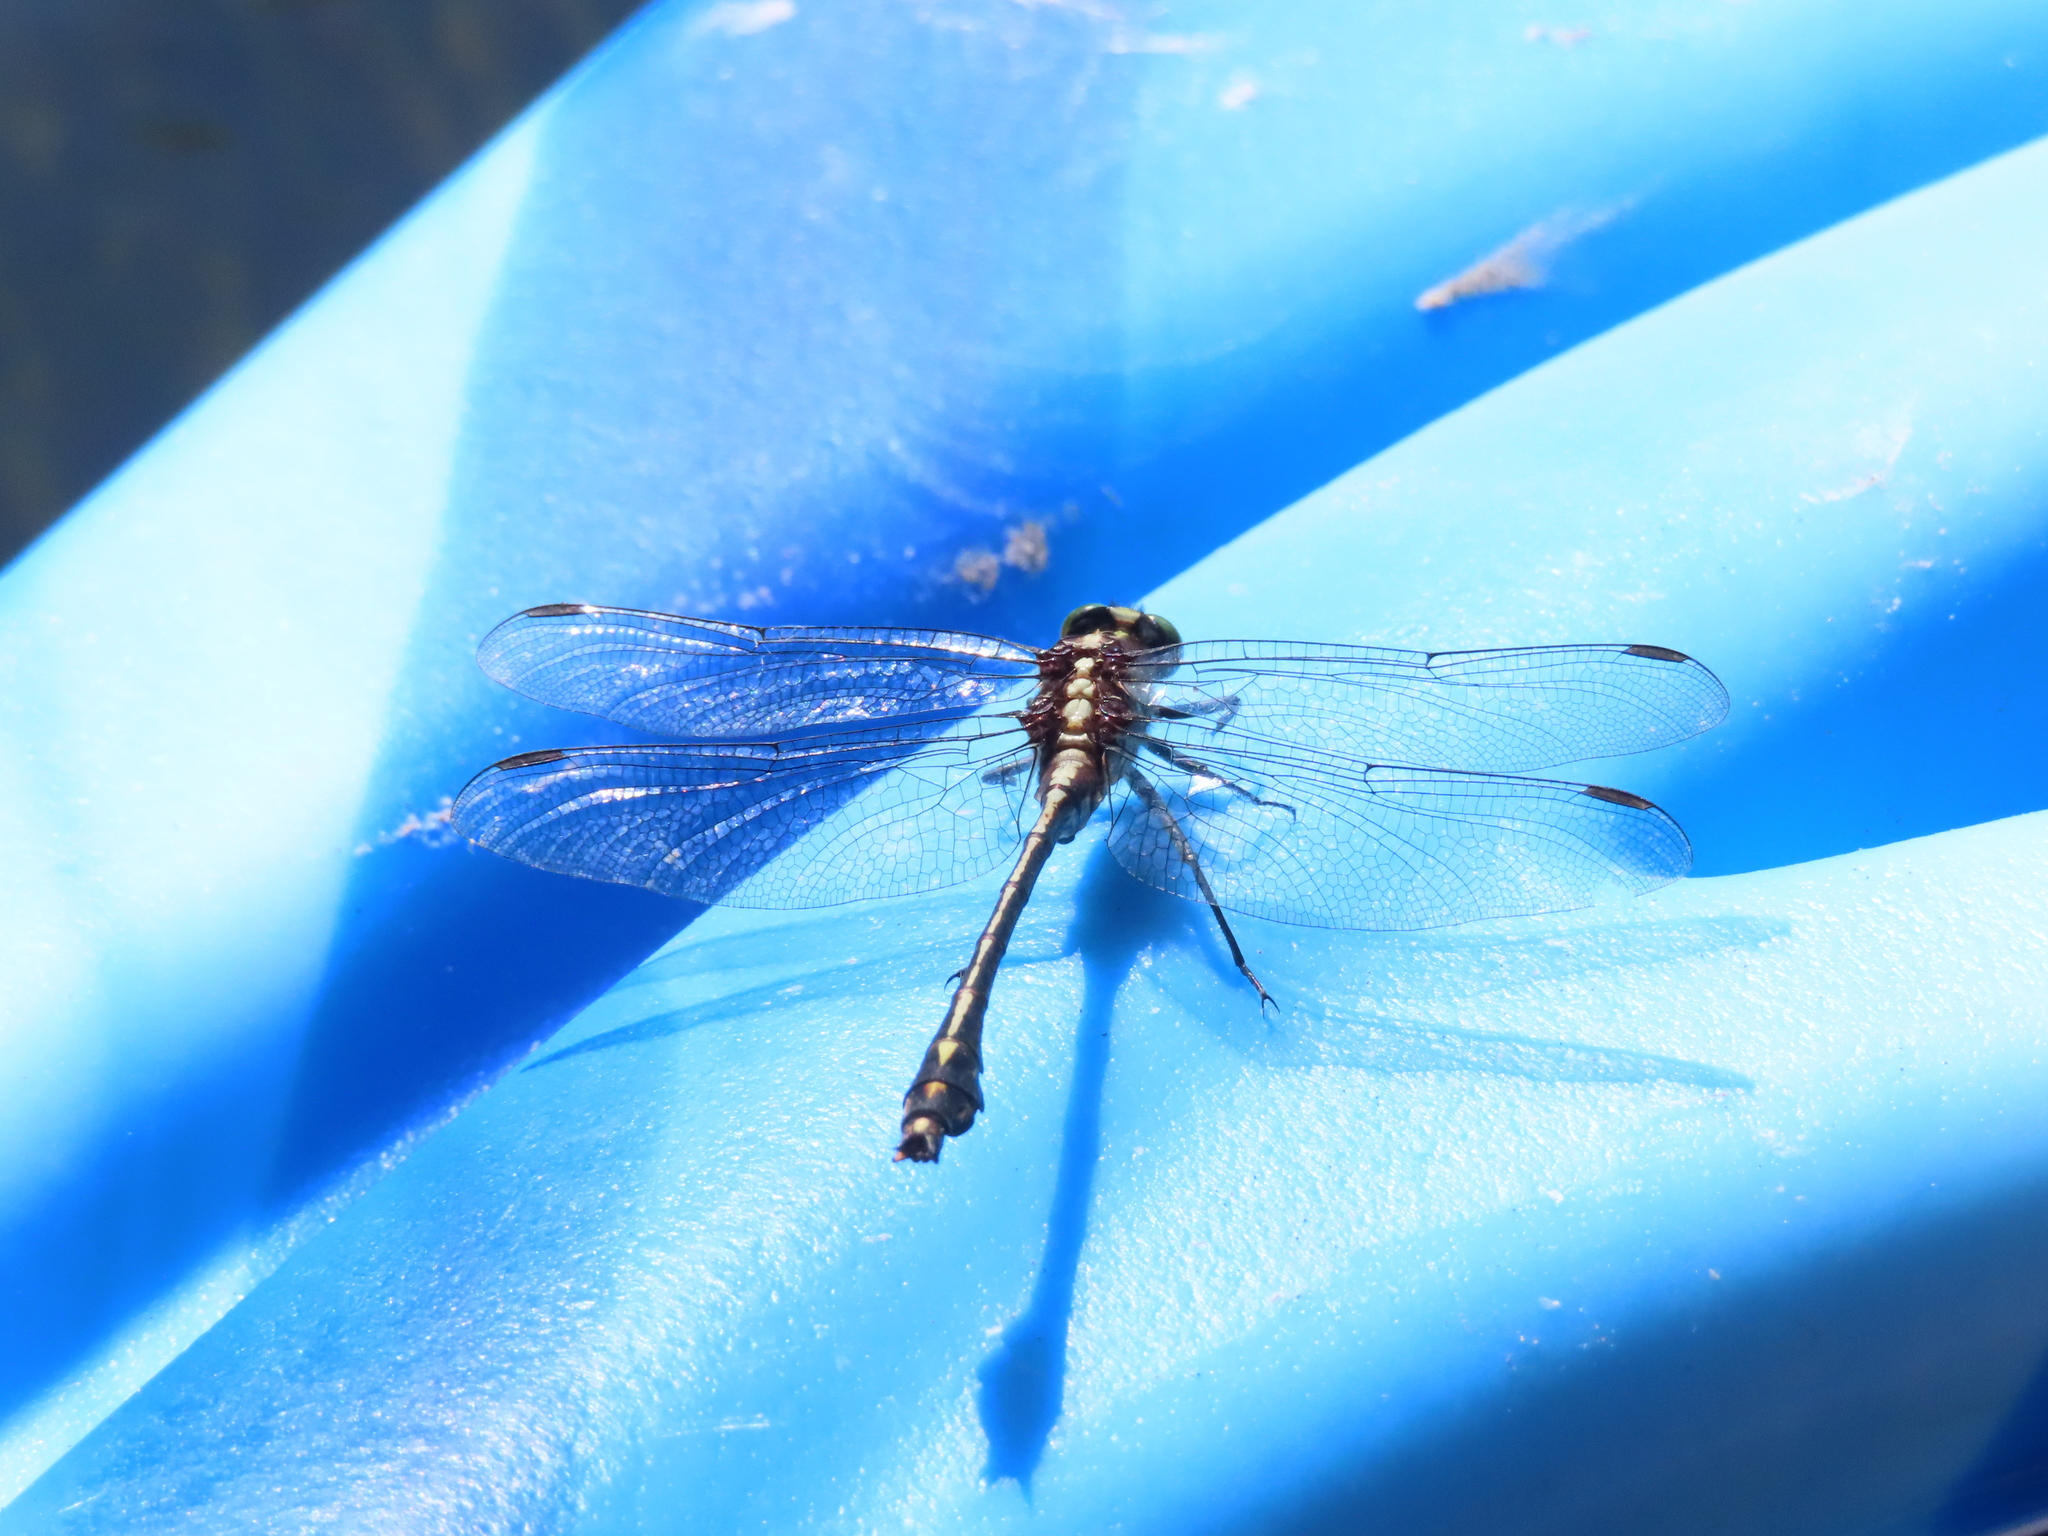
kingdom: Animalia
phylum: Arthropoda
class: Insecta
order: Odonata
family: Gomphidae
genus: Dromogomphus
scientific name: Dromogomphus spinosus
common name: Black-shouldered spinyleg
